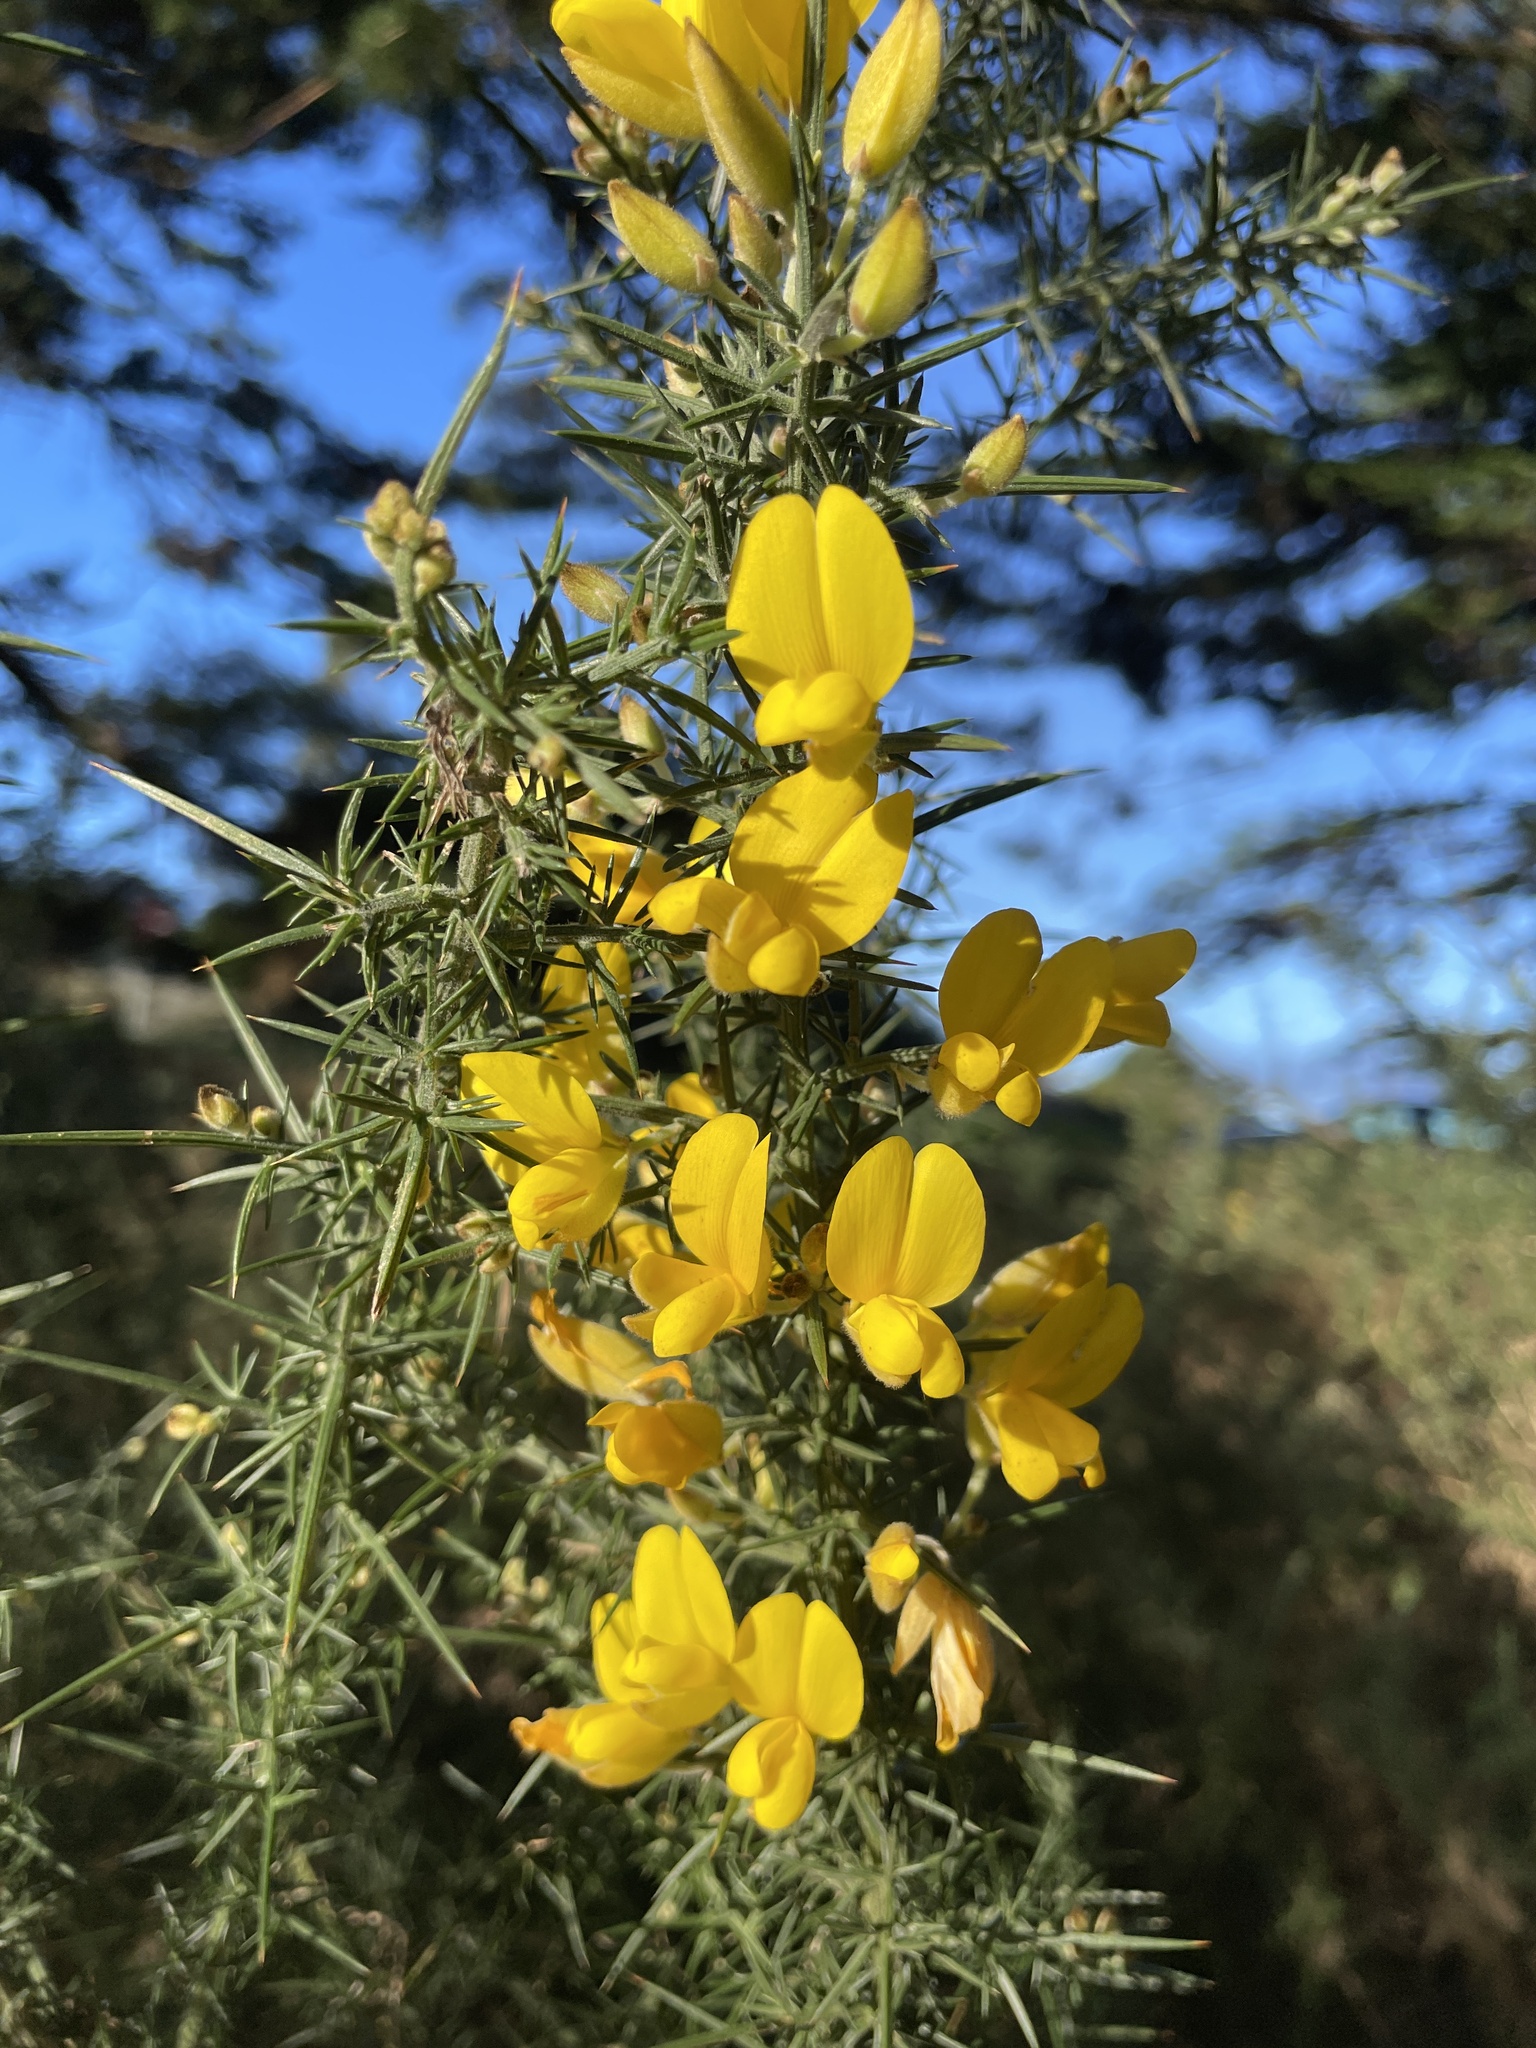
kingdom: Plantae
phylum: Tracheophyta
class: Magnoliopsida
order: Fabales
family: Fabaceae
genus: Ulex
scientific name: Ulex europaeus
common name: Common gorse
